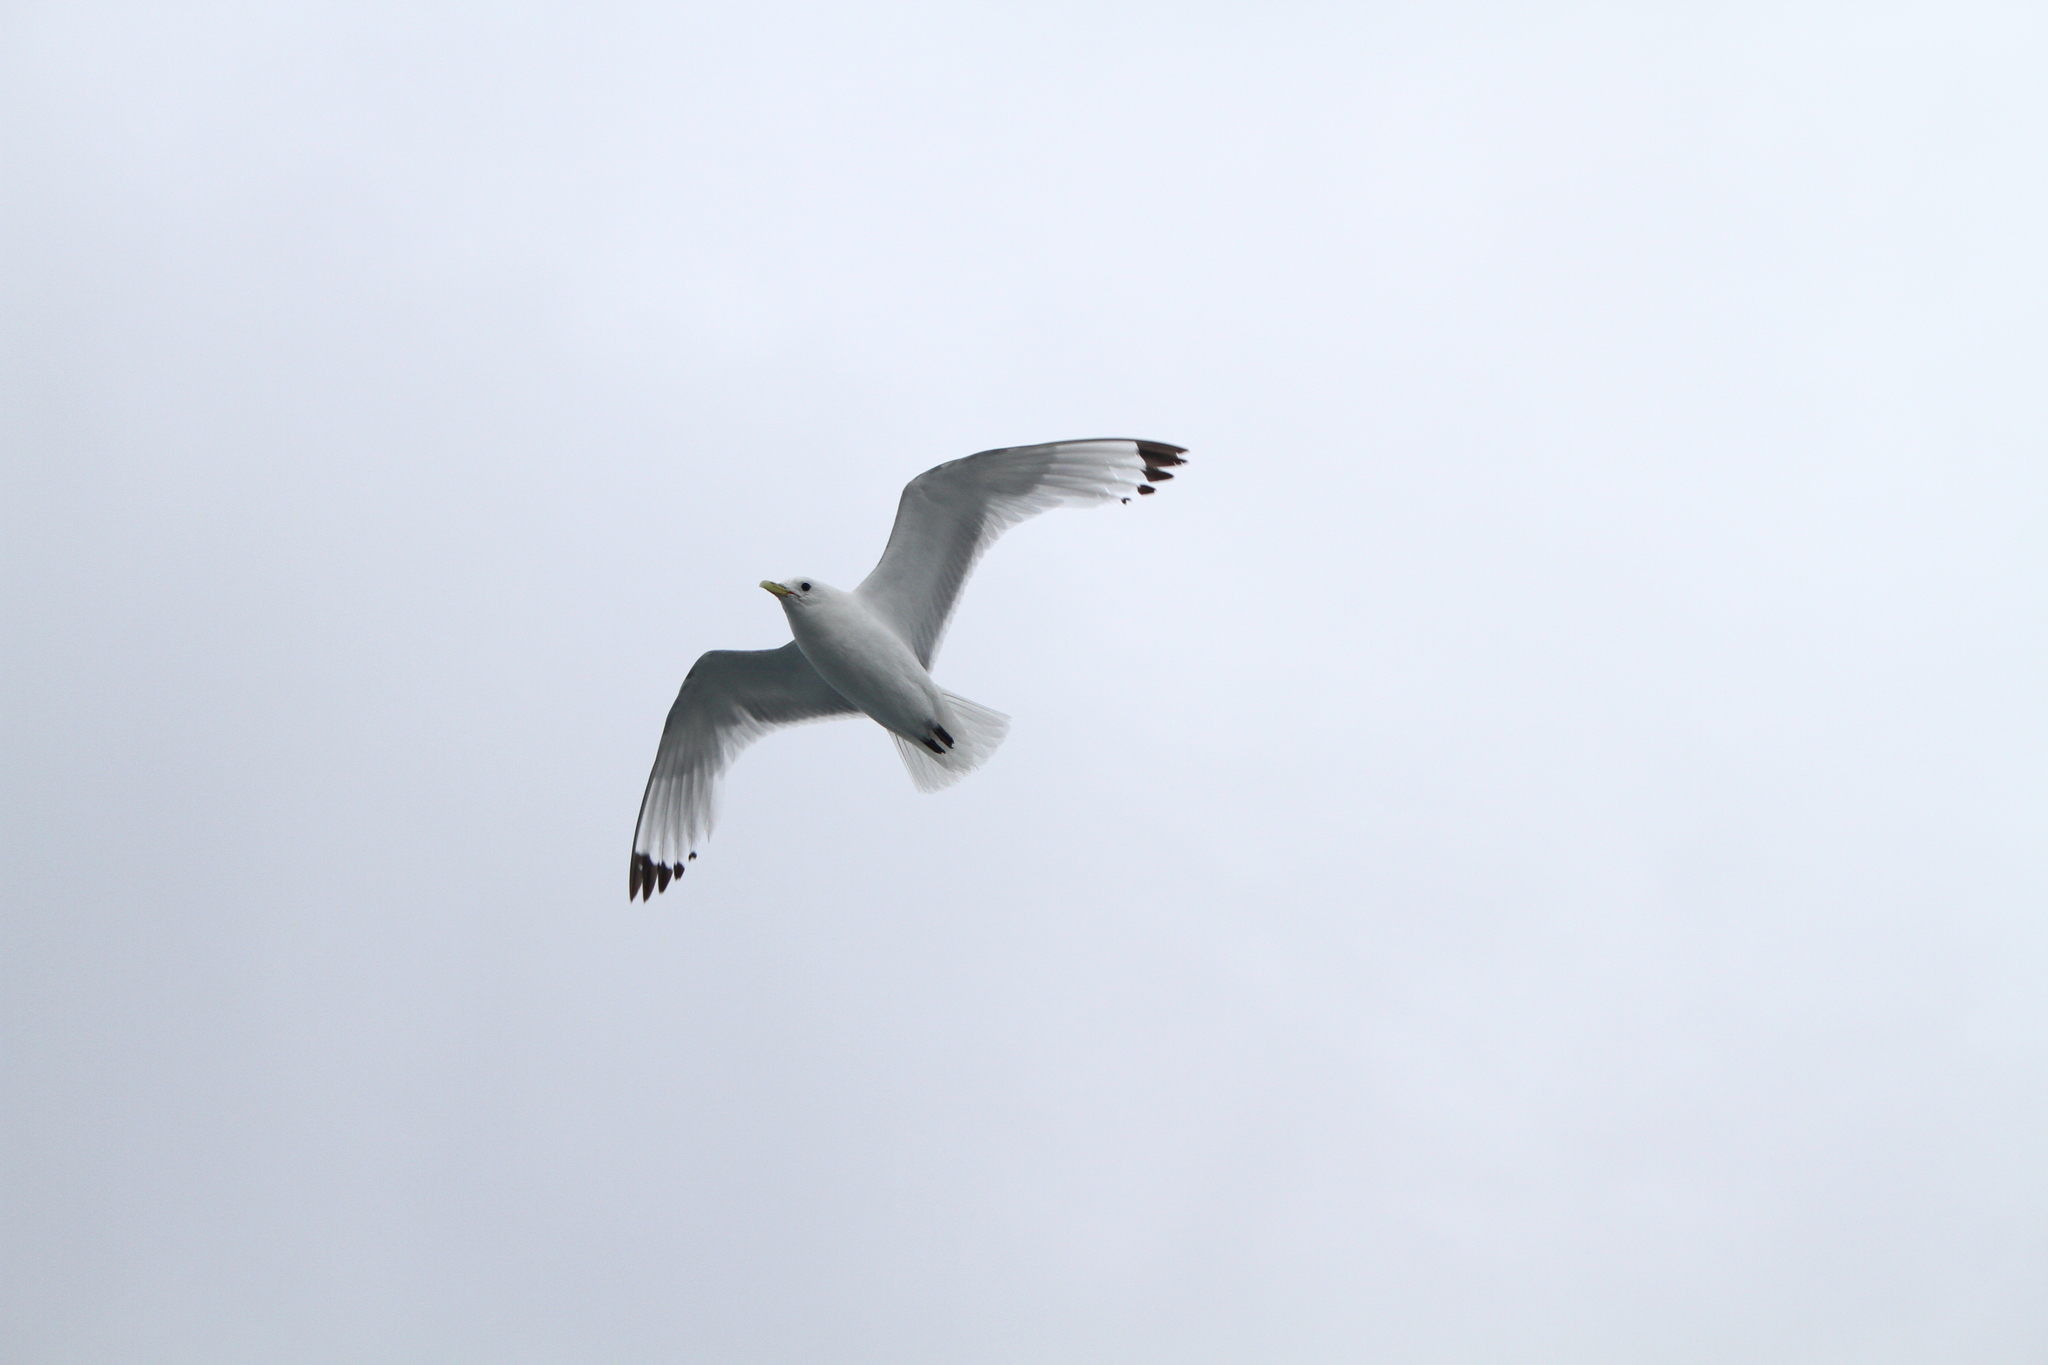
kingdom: Animalia
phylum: Chordata
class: Aves
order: Charadriiformes
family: Laridae
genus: Rissa
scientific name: Rissa tridactyla
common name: Black-legged kittiwake
